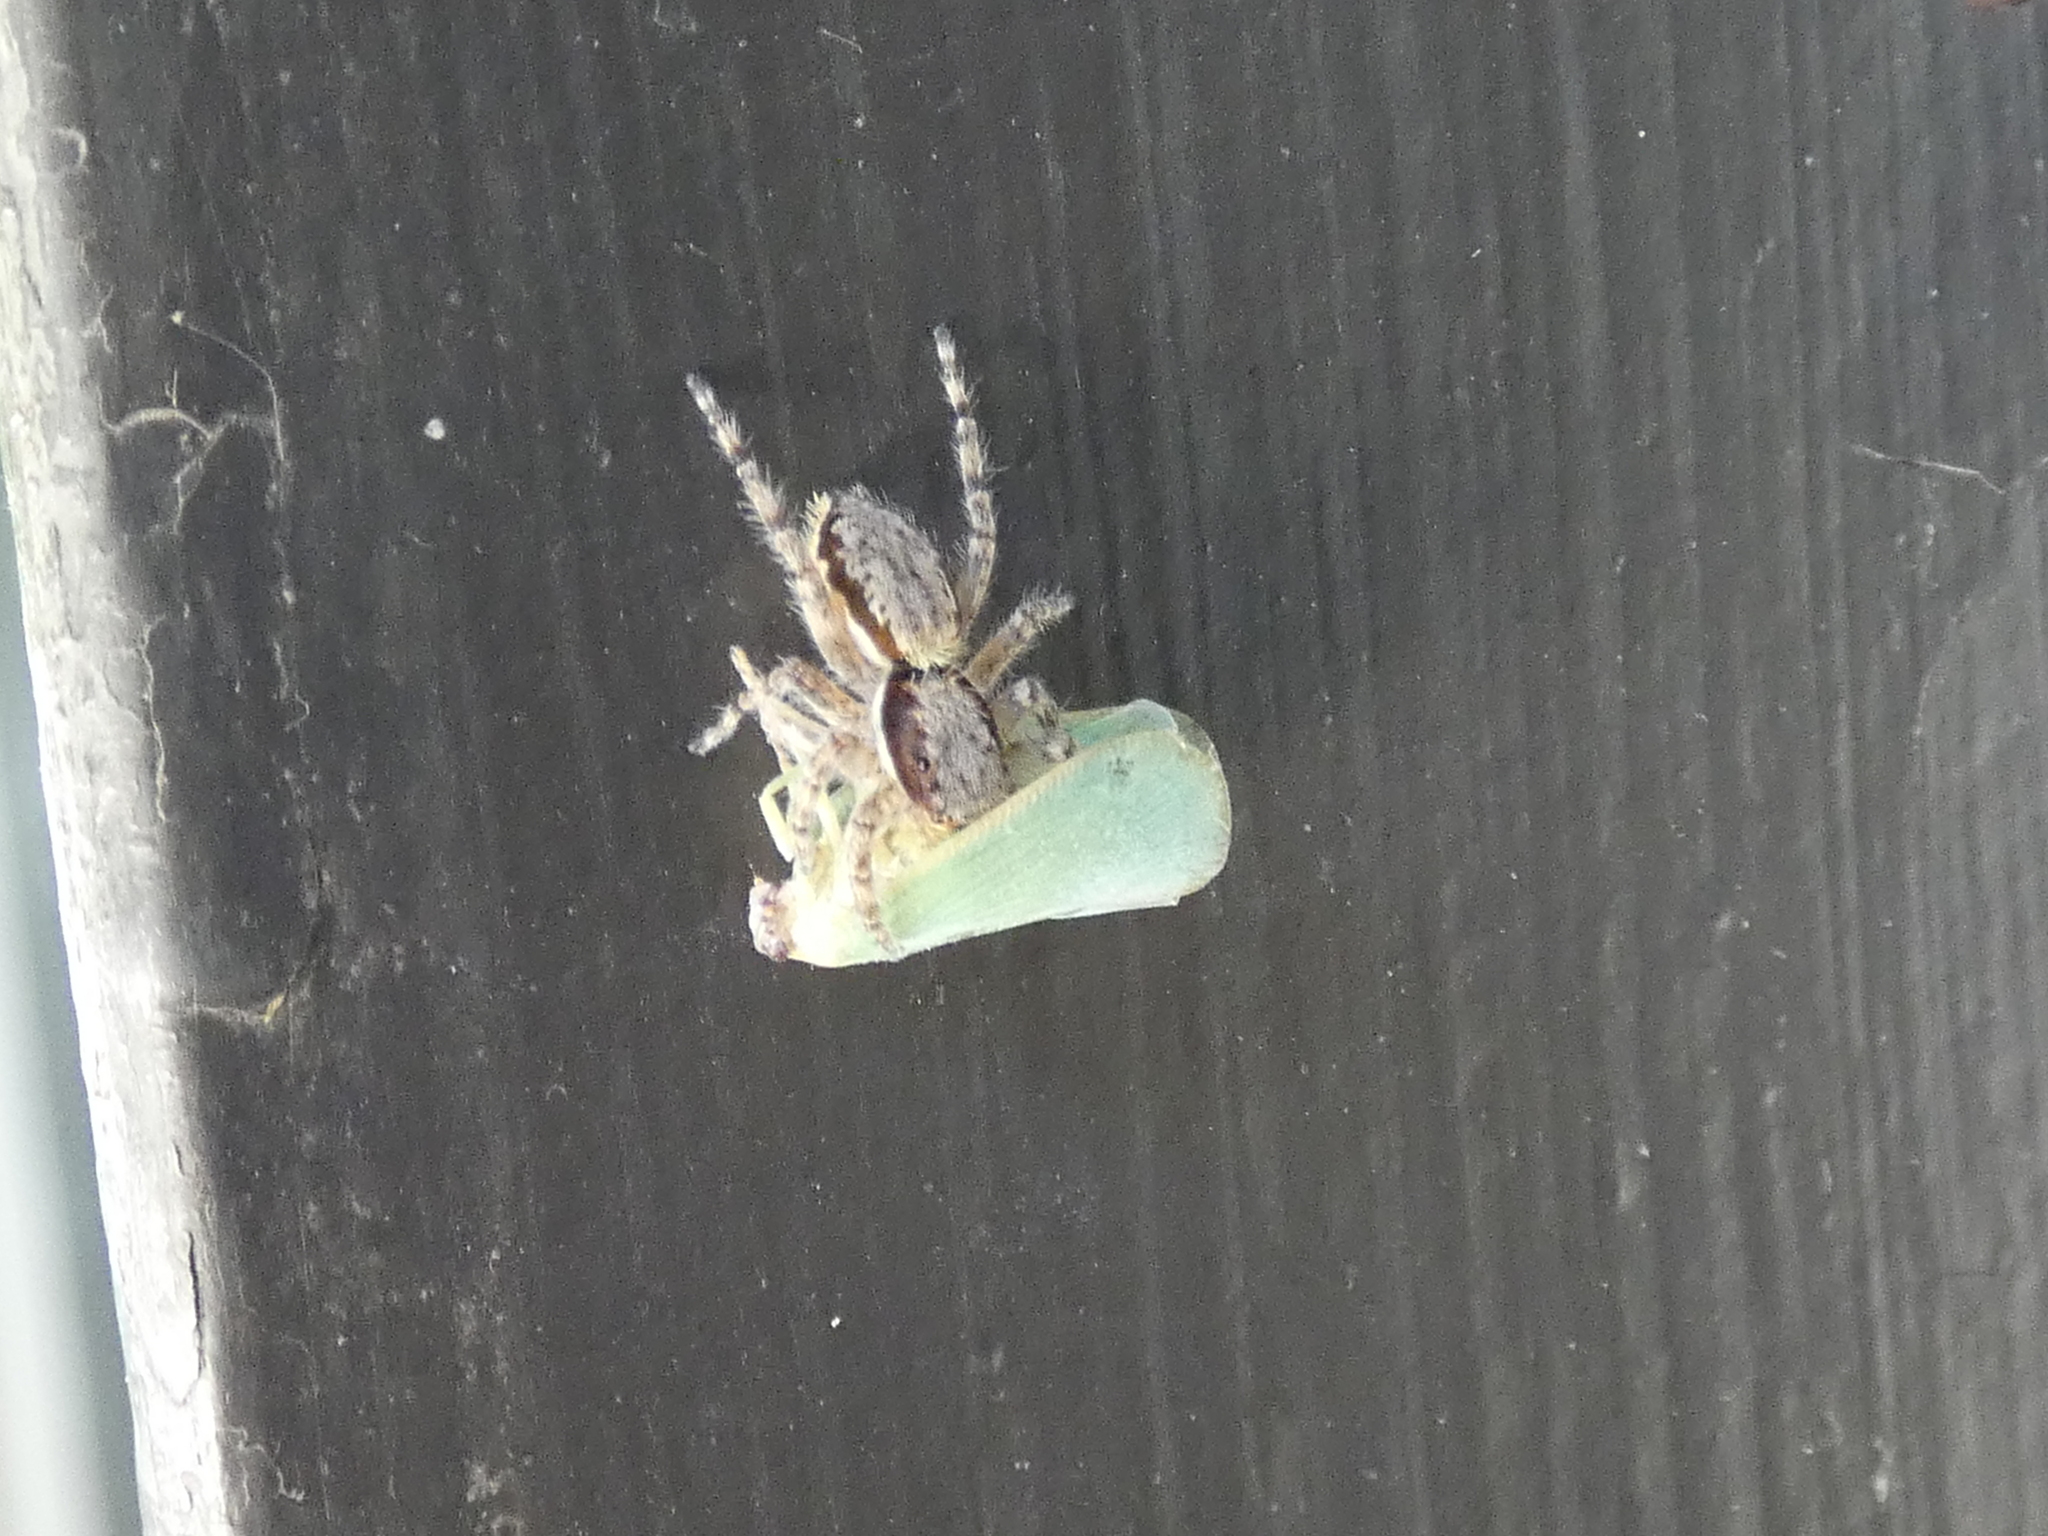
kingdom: Animalia
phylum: Arthropoda
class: Arachnida
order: Araneae
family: Salticidae
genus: Menemerus
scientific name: Menemerus bivittatus
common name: Gray wall jumper
